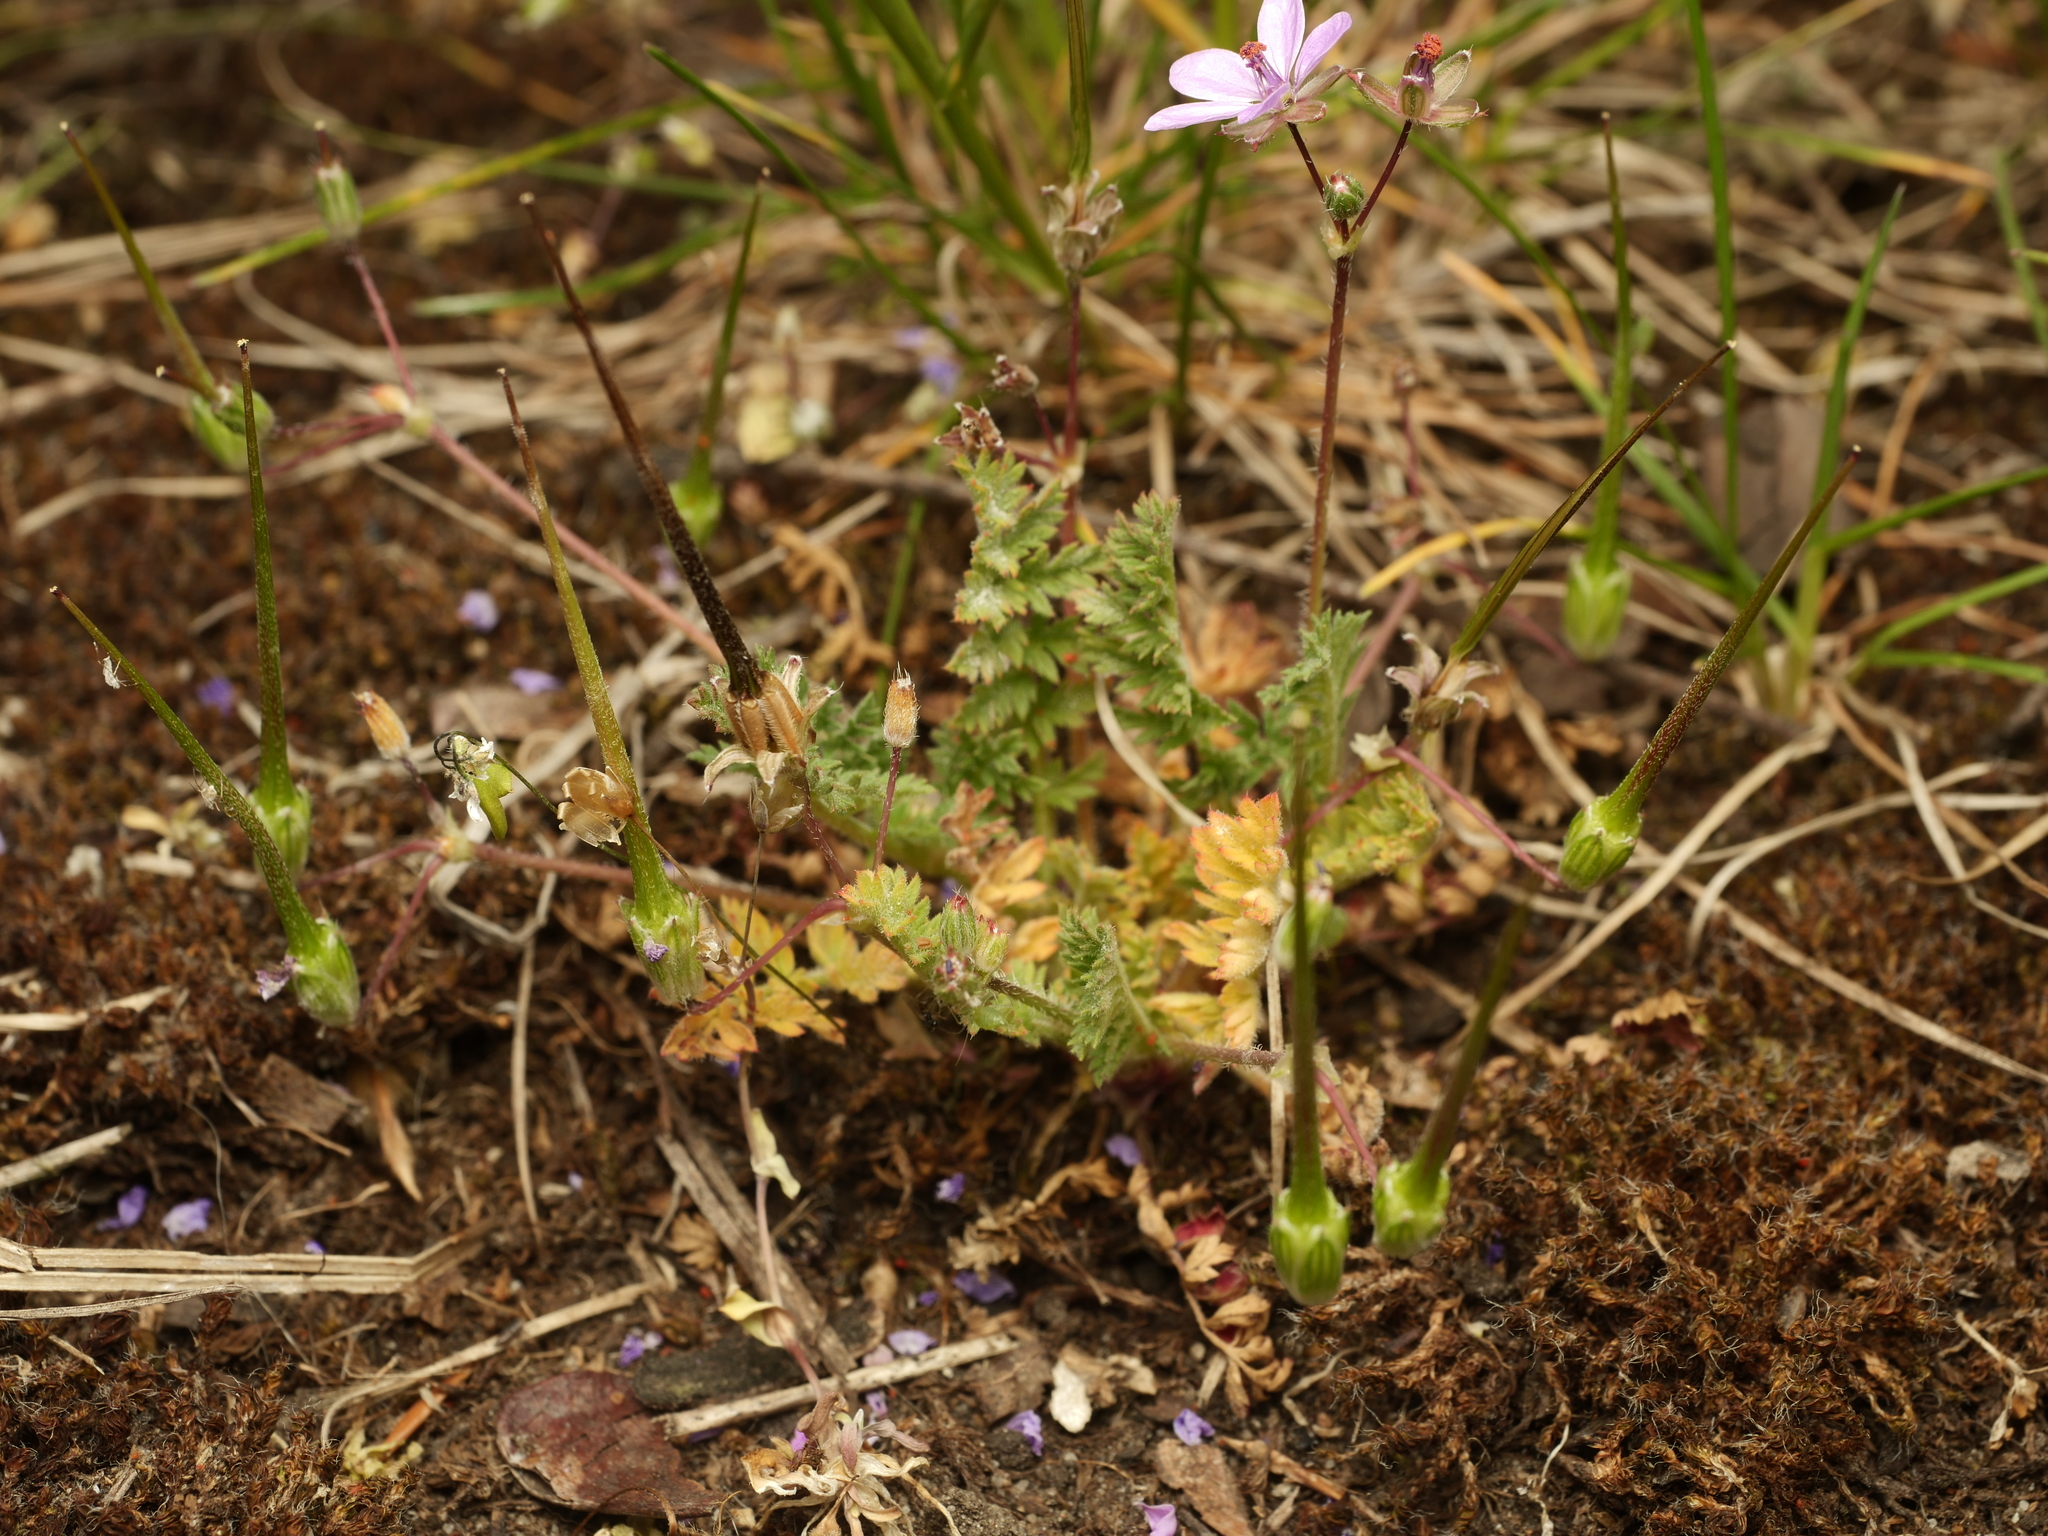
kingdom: Plantae
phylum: Tracheophyta
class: Magnoliopsida
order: Geraniales
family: Geraniaceae
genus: Erodium
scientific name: Erodium cicutarium
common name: Common stork's-bill
